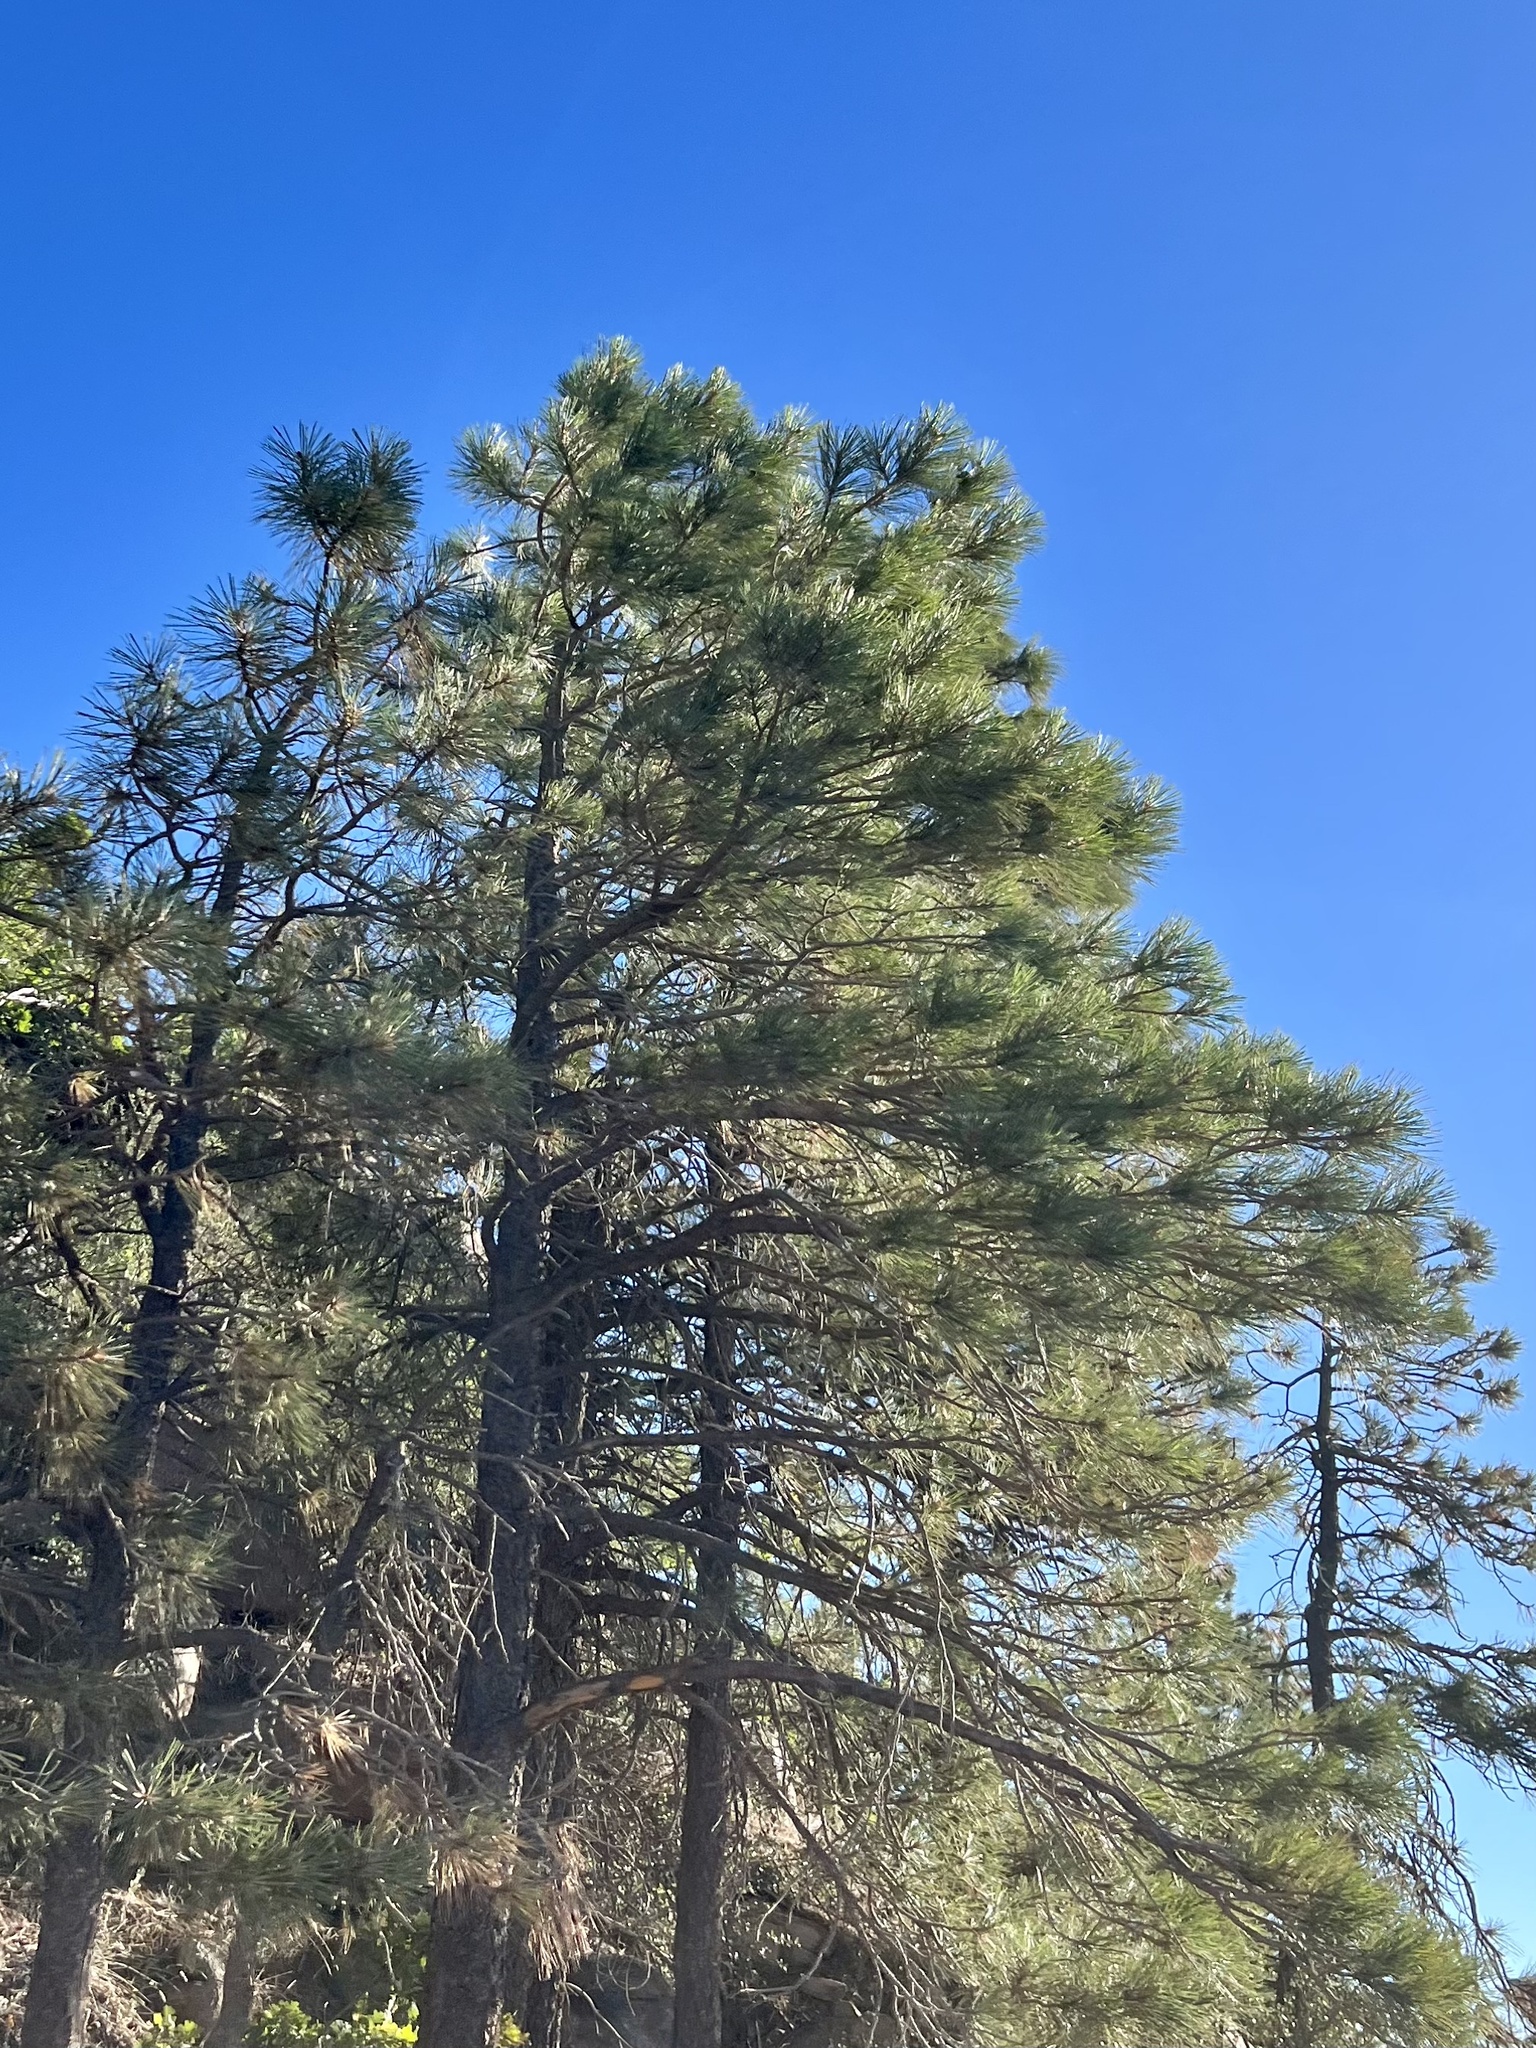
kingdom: Plantae
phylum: Tracheophyta
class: Pinopsida
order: Pinales
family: Pinaceae
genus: Pinus
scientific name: Pinus ponderosa
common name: Western yellow-pine
